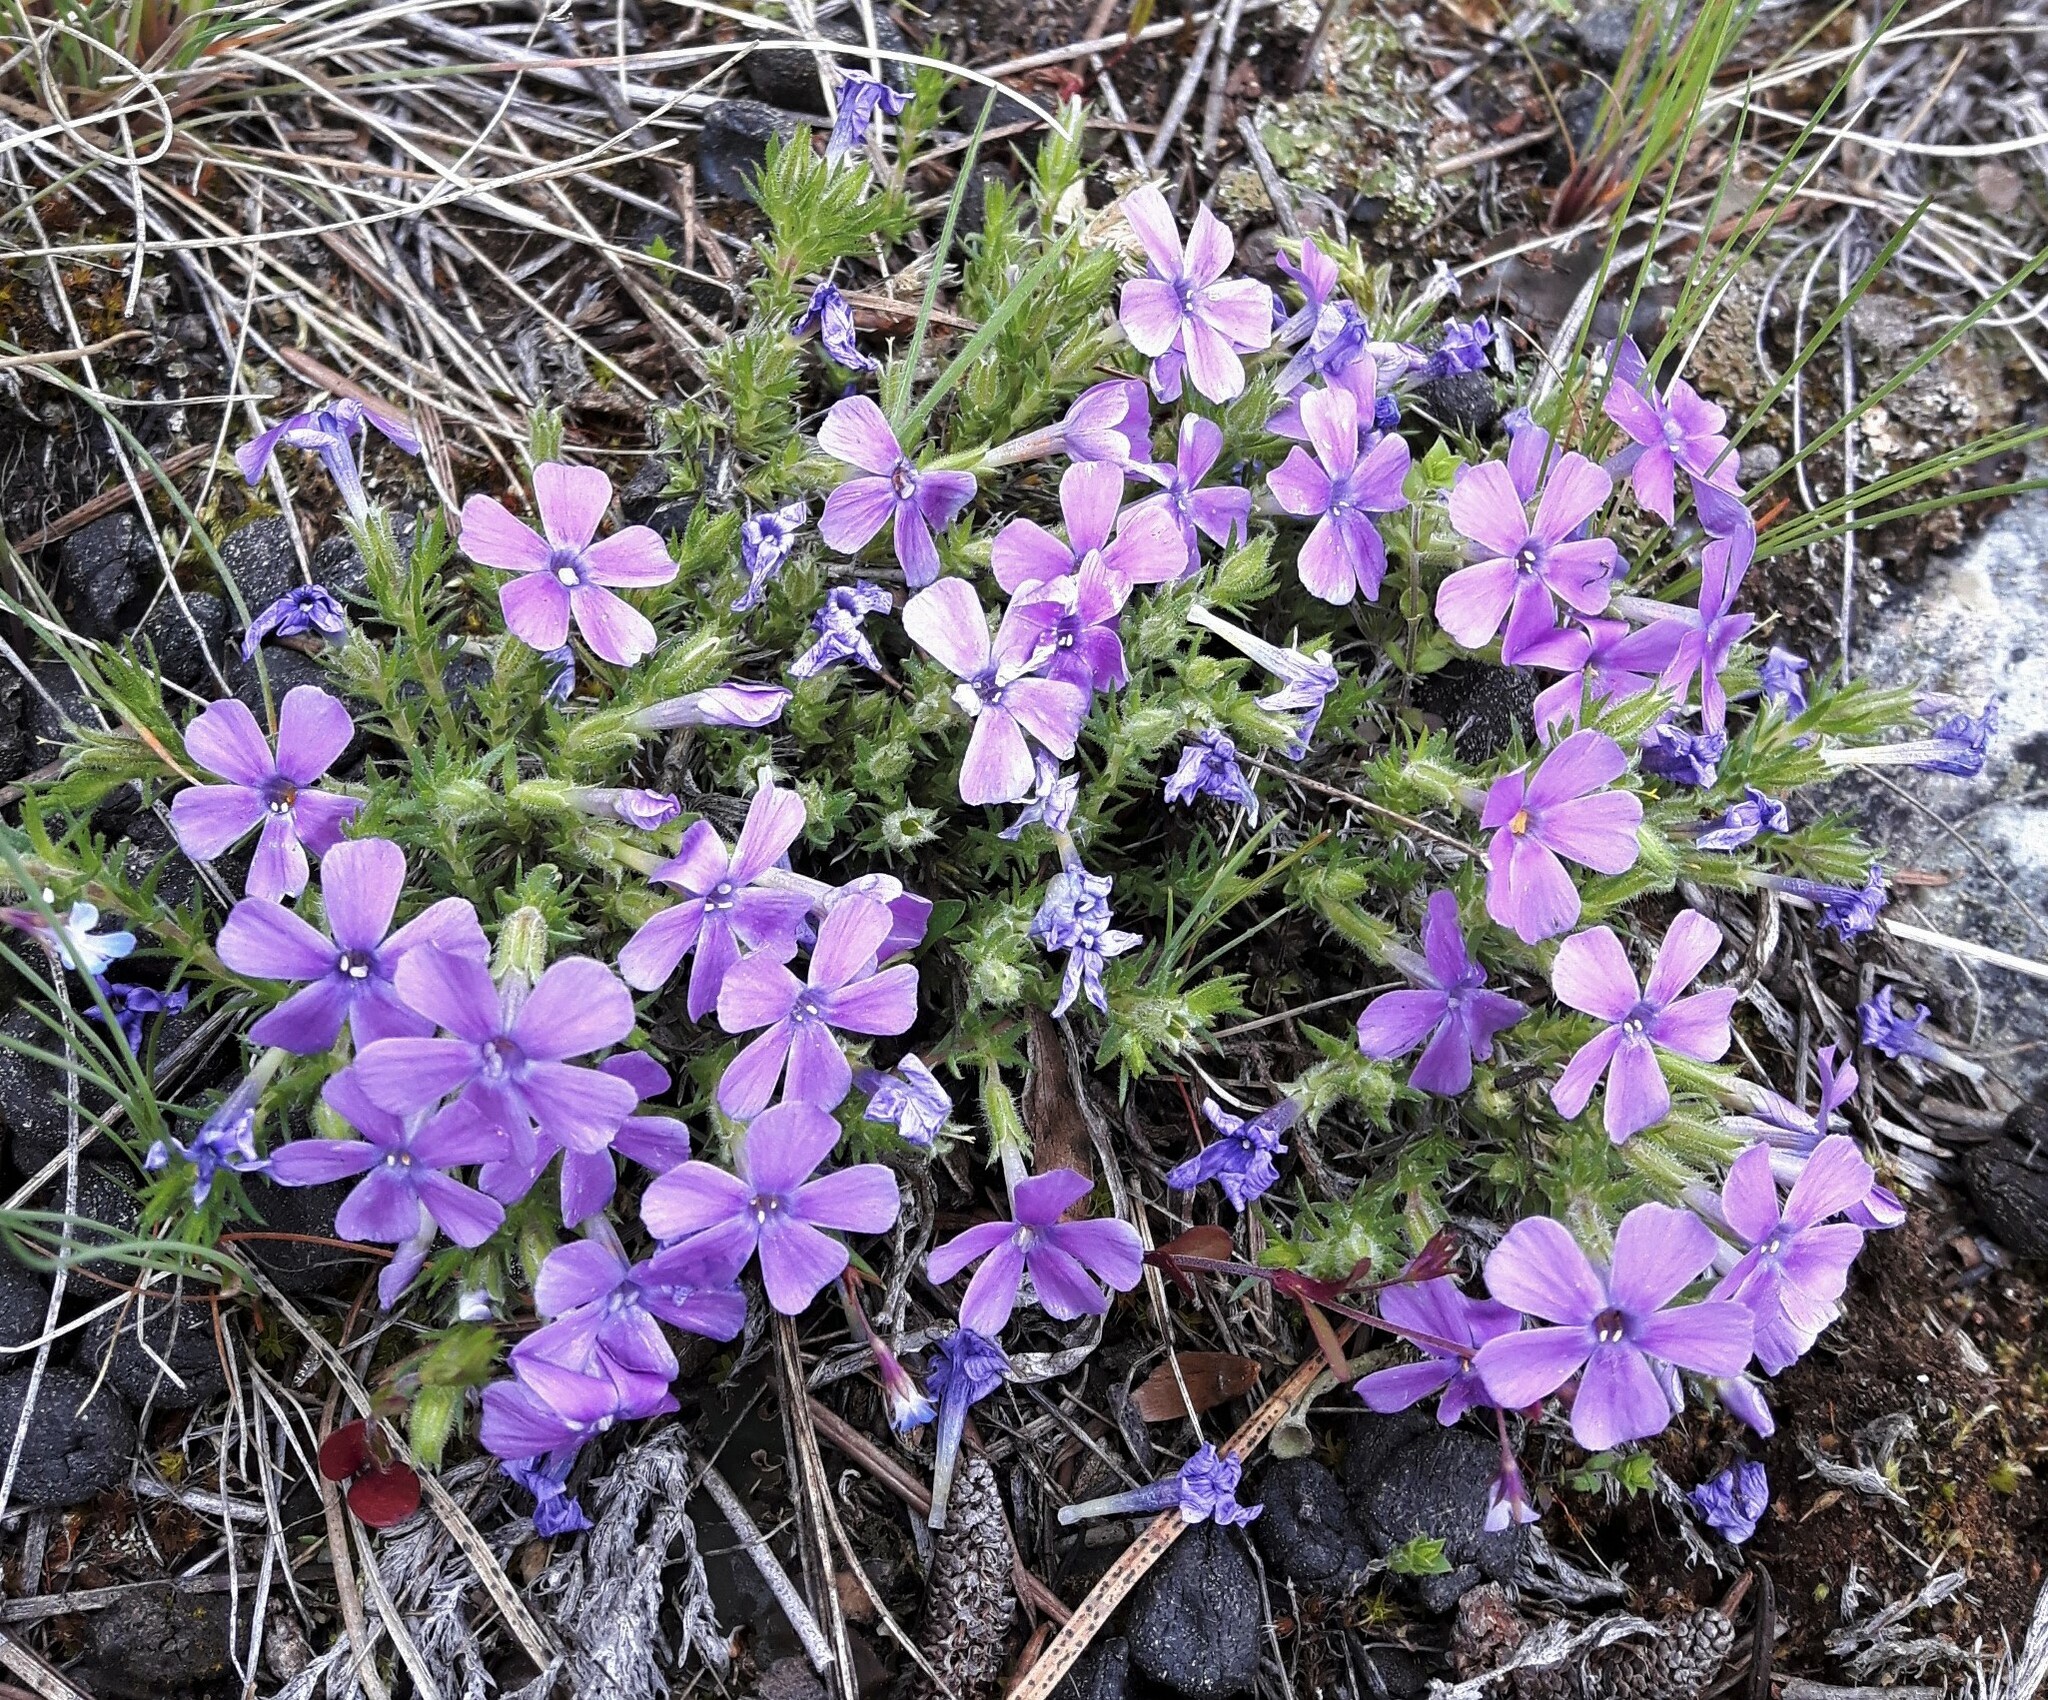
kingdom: Plantae
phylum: Tracheophyta
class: Magnoliopsida
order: Ericales
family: Polemoniaceae
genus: Phlox
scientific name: Phlox caespitosa
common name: Cushion phlox
